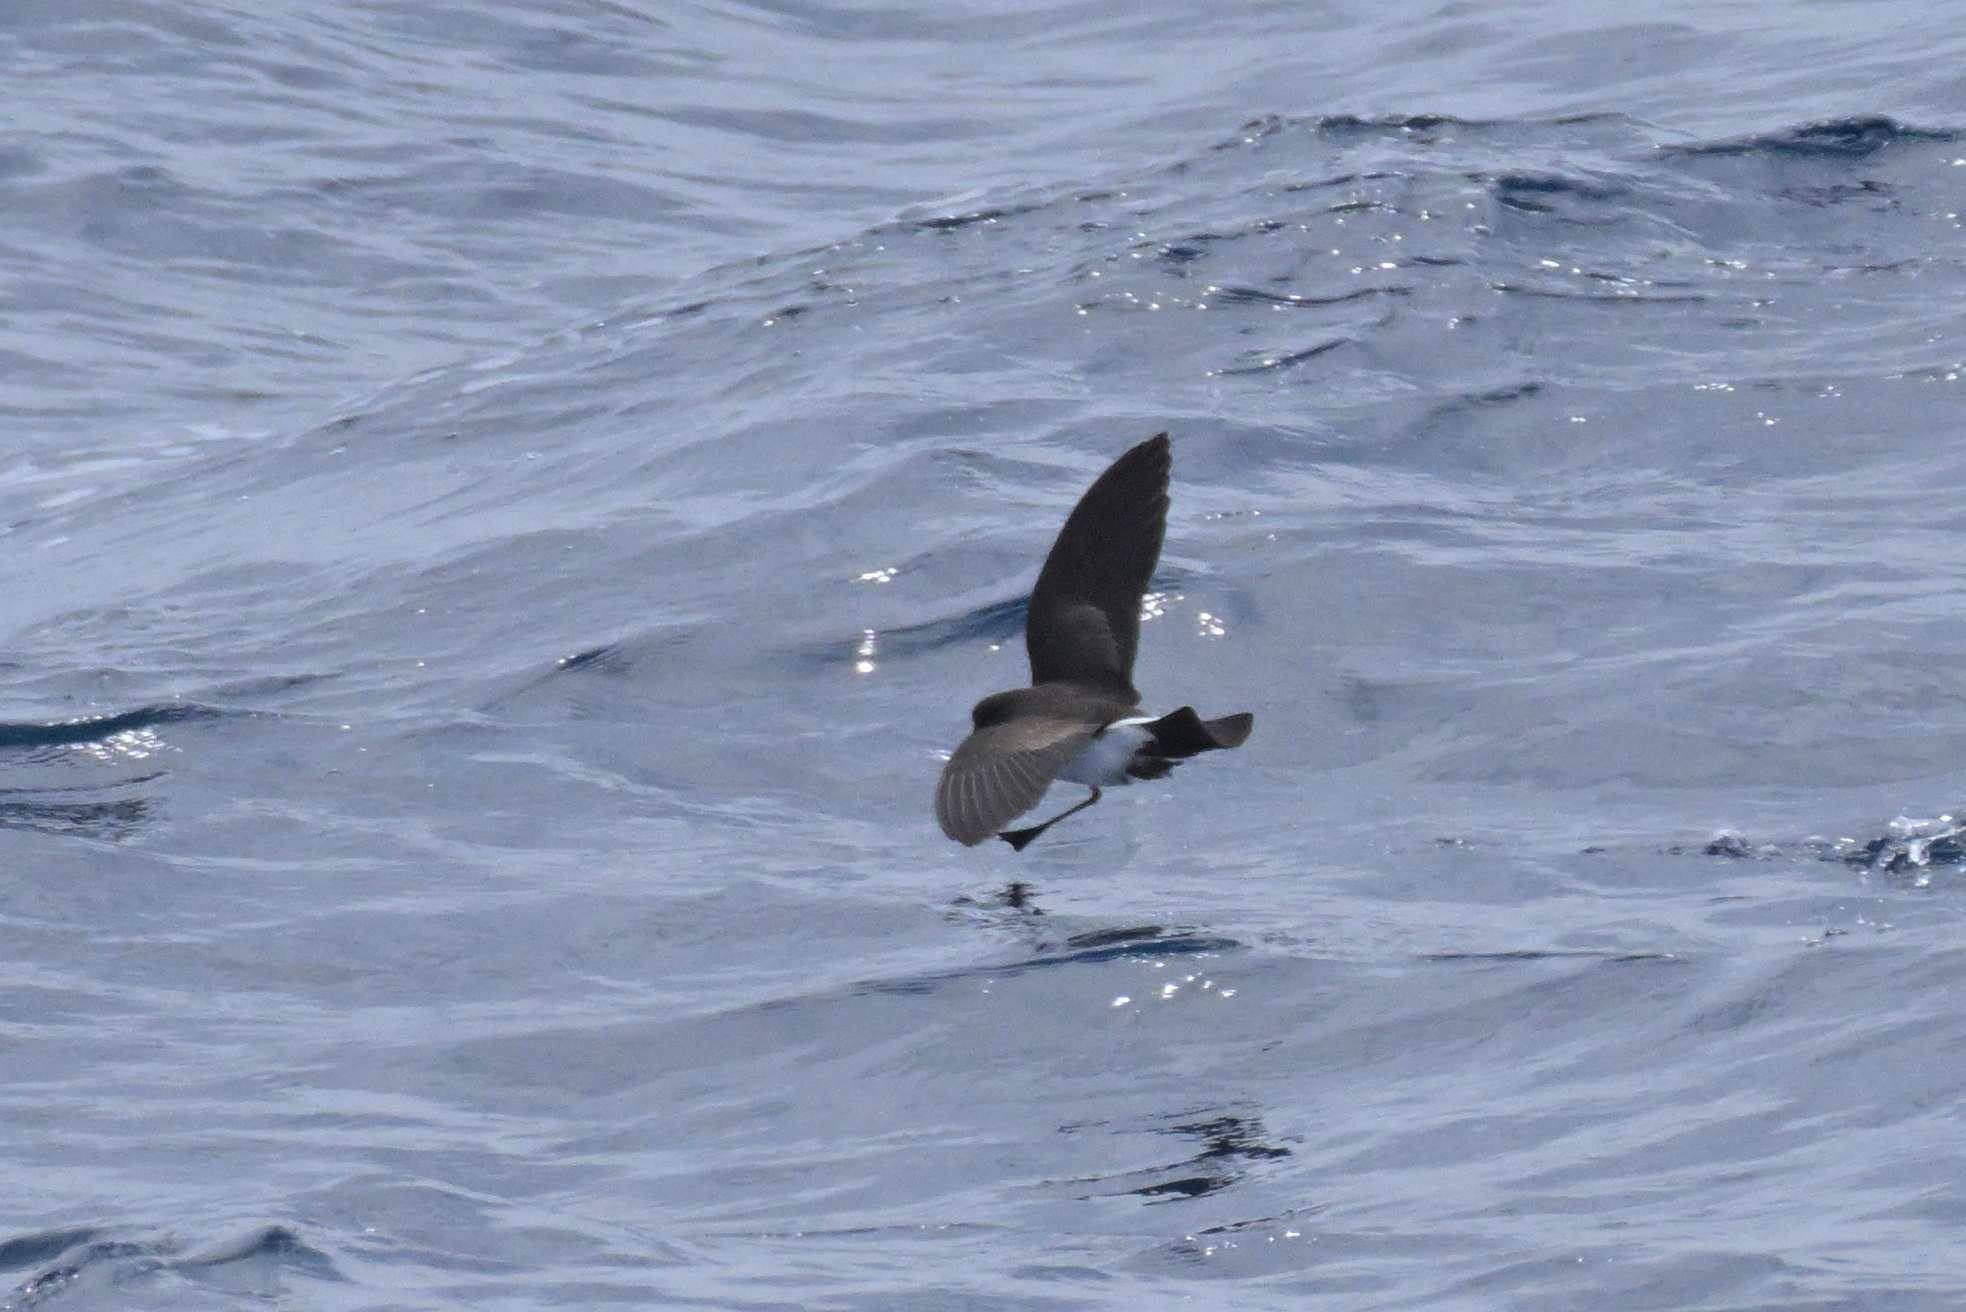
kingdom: Animalia
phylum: Chordata
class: Aves
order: Procellariiformes
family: Hydrobatidae
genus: Fregetta
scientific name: Fregetta tropica
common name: Black-bellied storm-petrel
